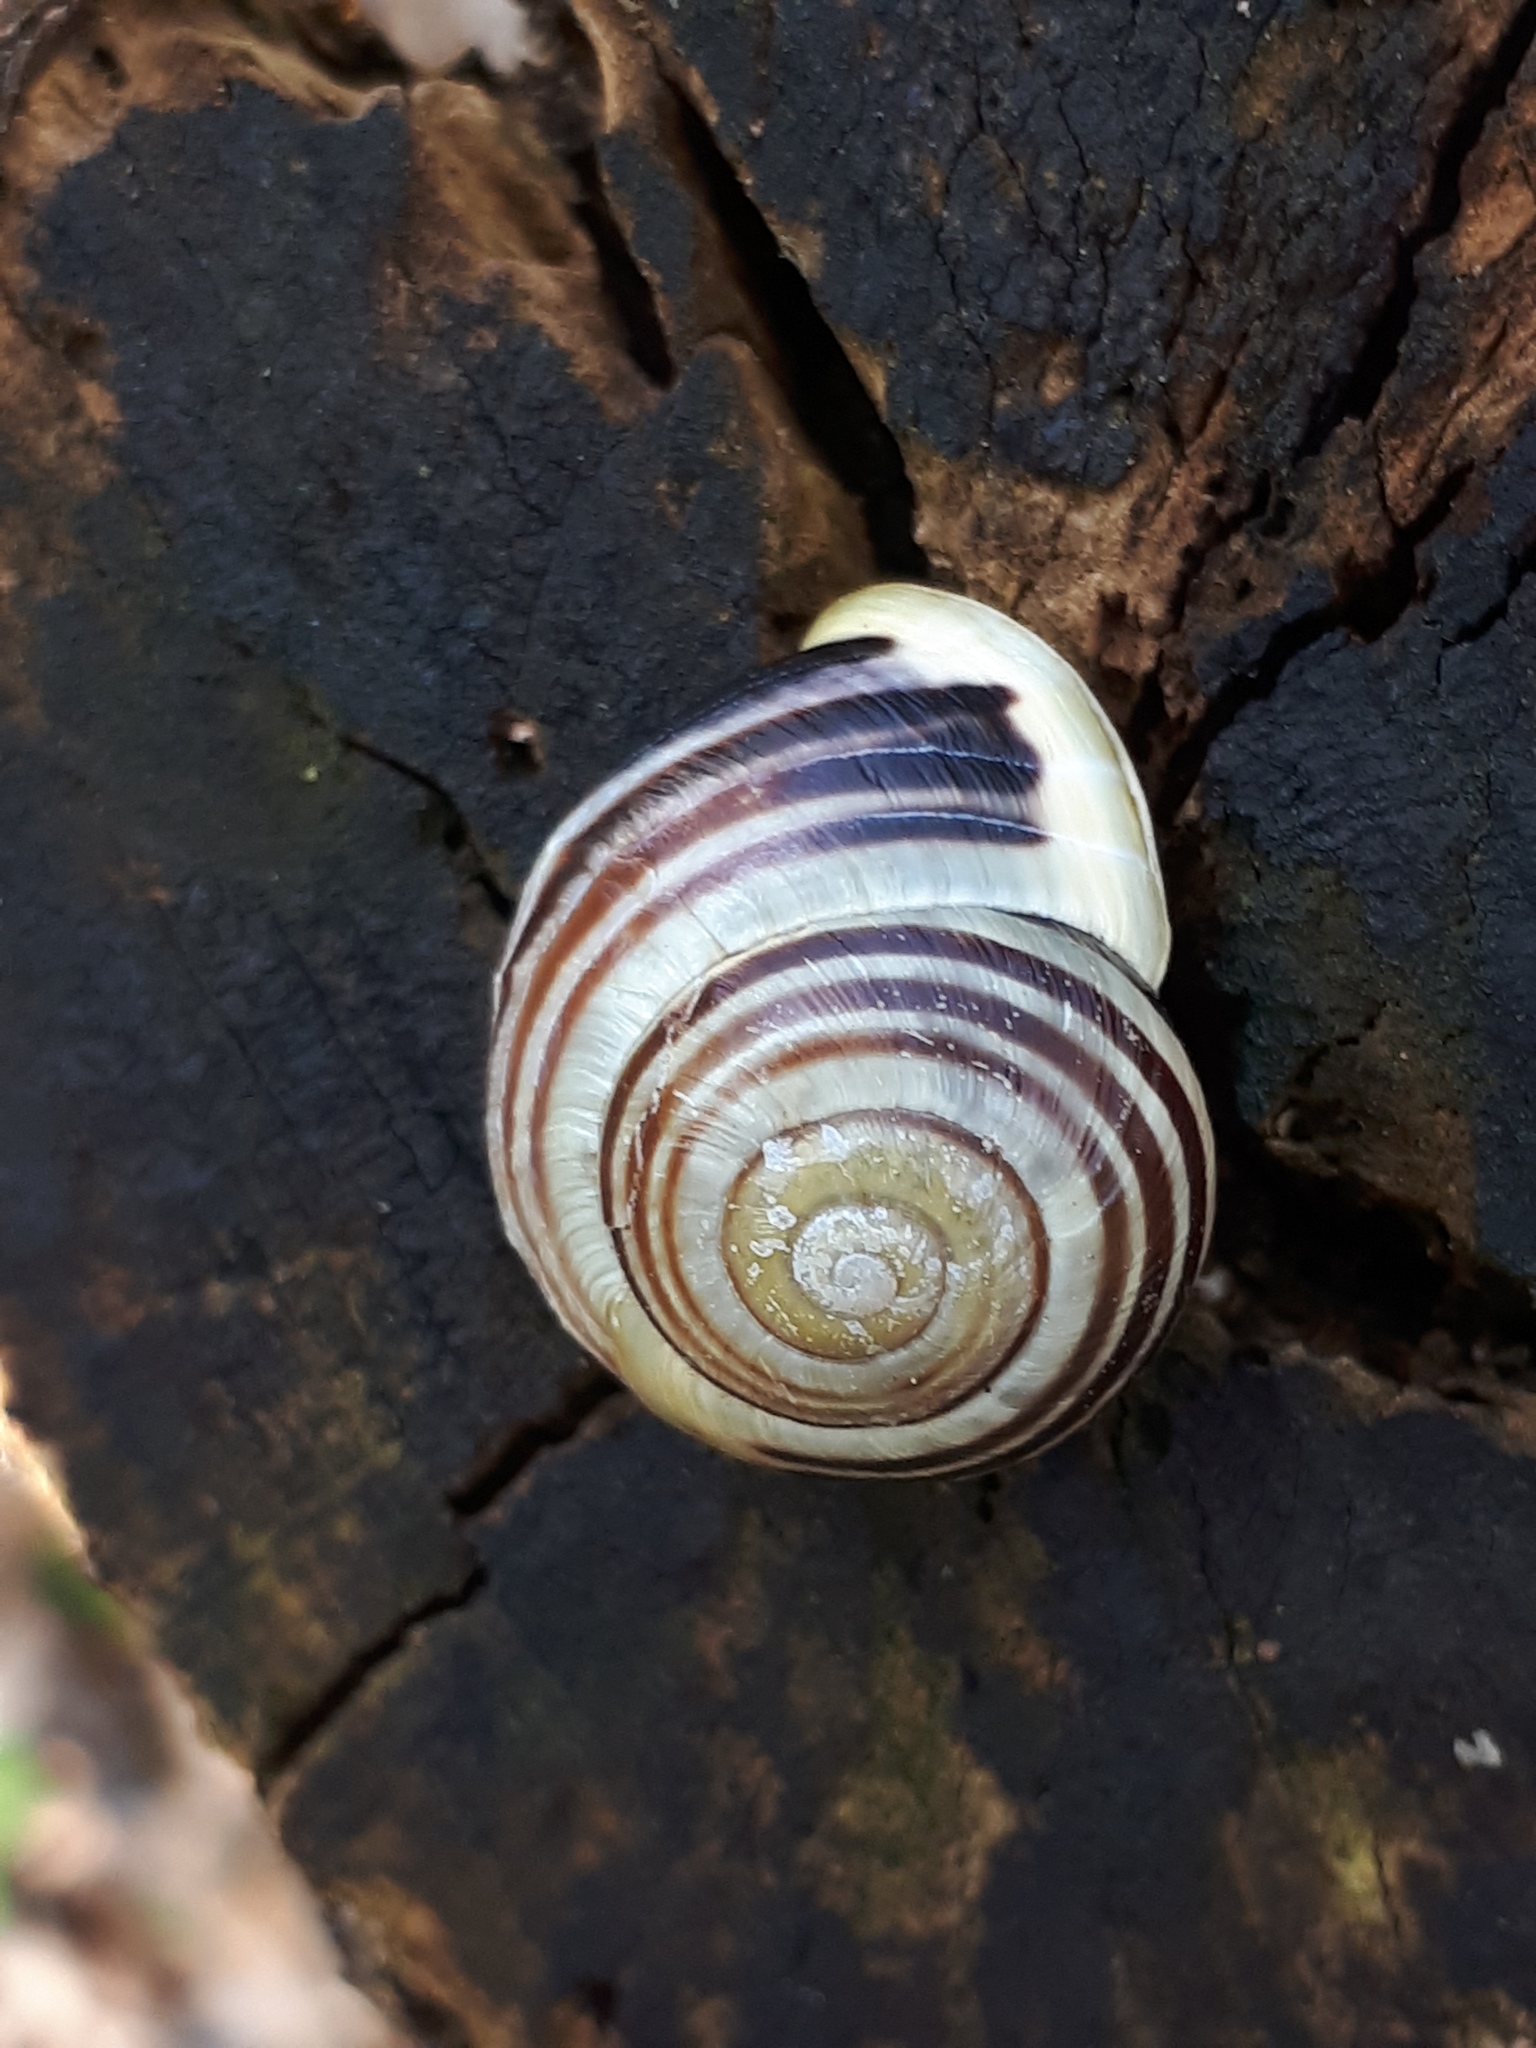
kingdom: Animalia
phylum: Mollusca
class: Gastropoda
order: Stylommatophora
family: Helicidae
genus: Cepaea
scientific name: Cepaea hortensis
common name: White-lip gardensnail
